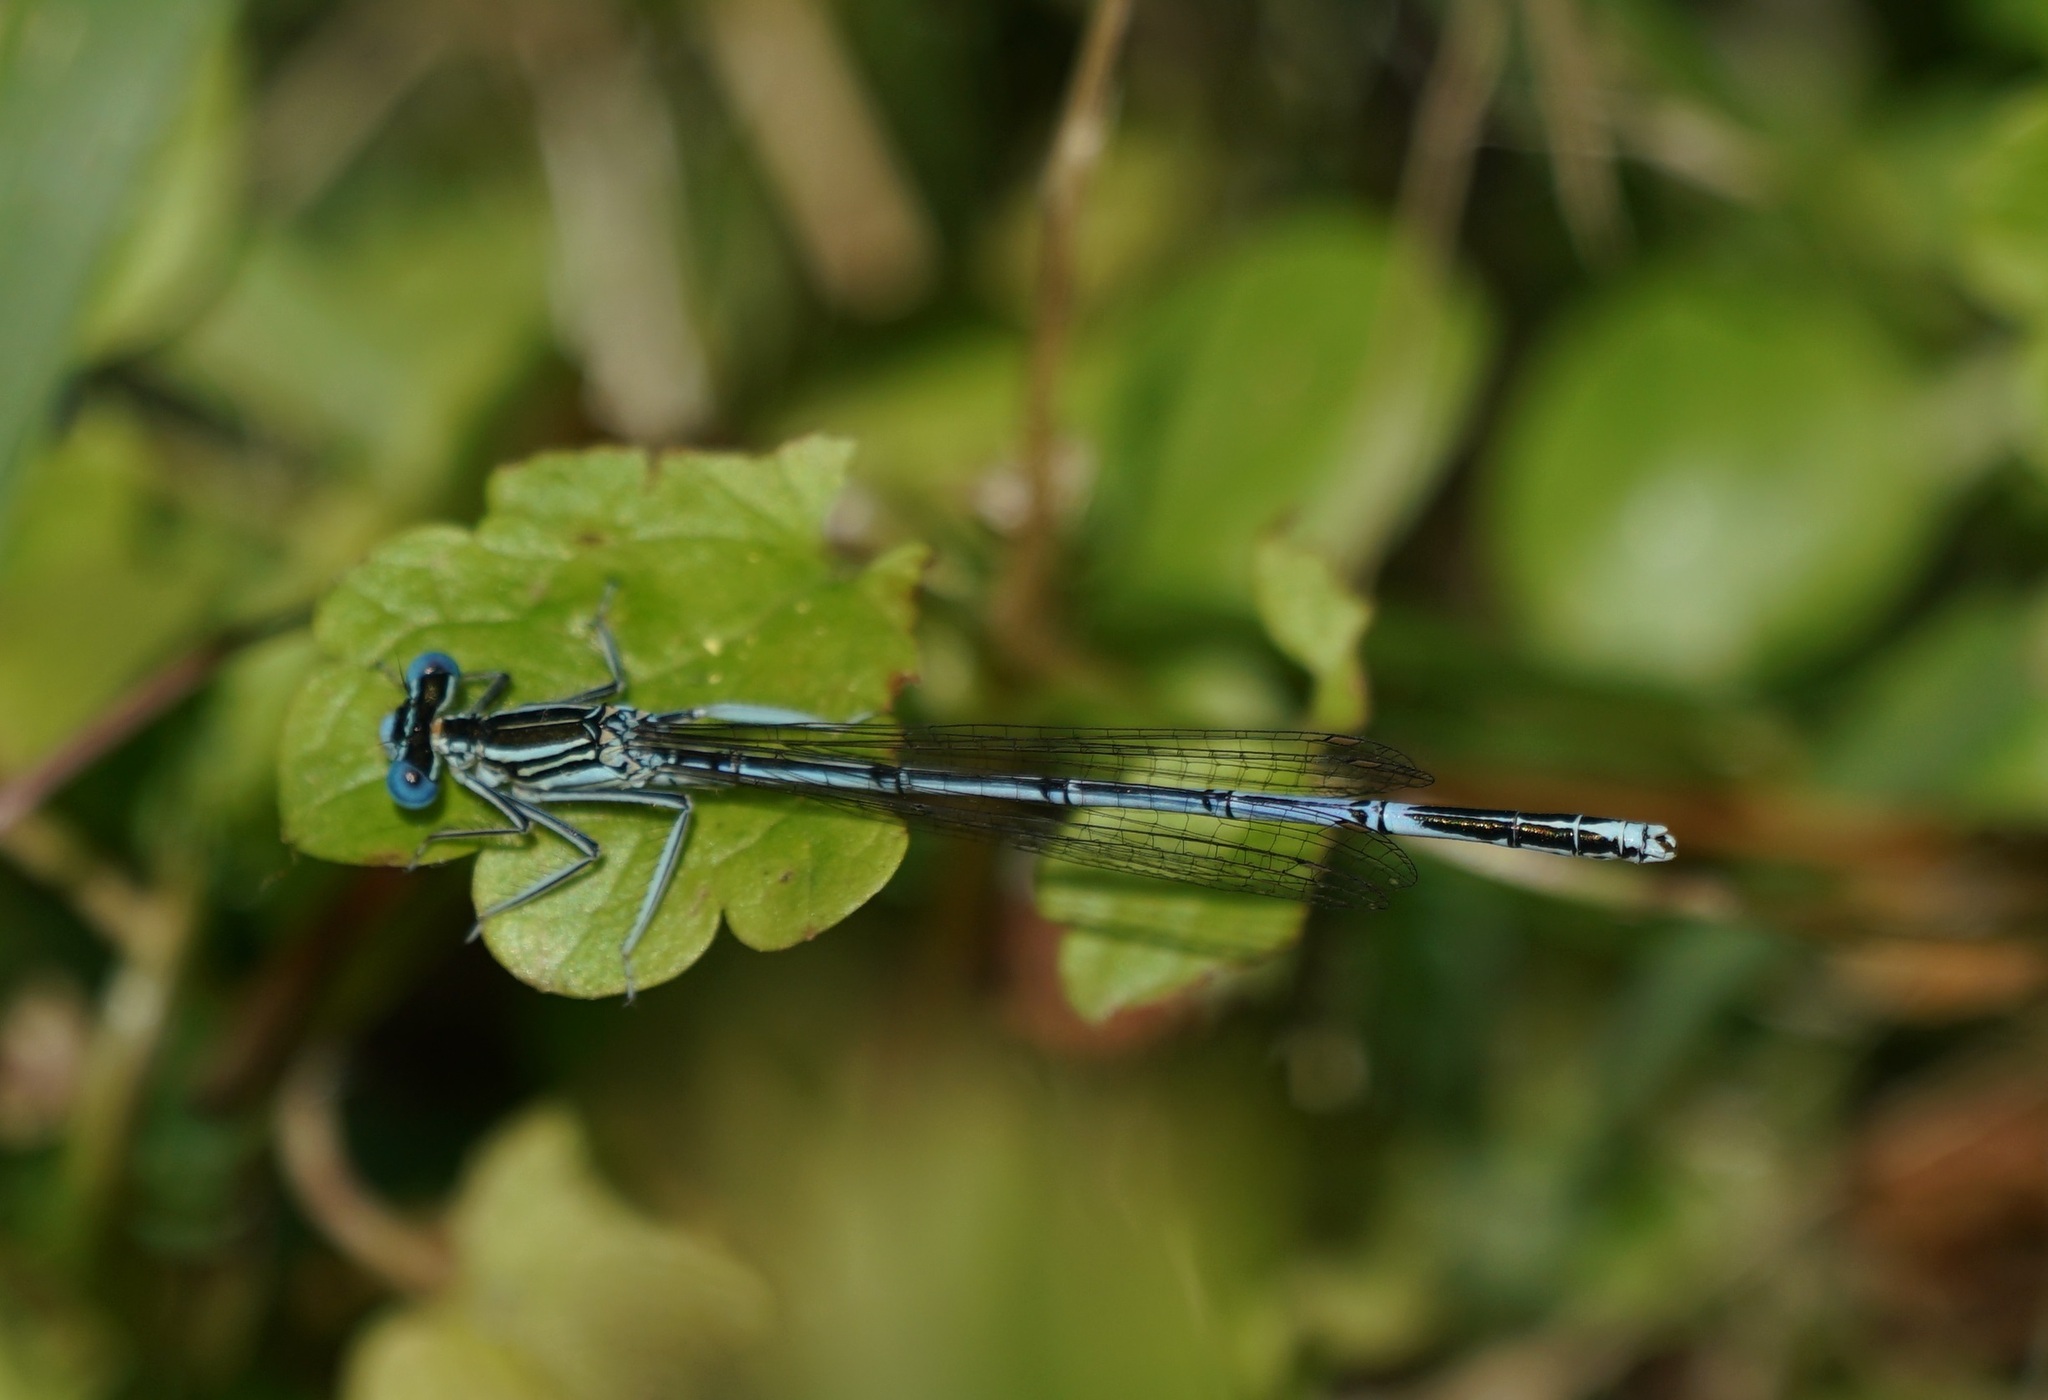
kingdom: Animalia
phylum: Arthropoda
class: Insecta
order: Odonata
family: Platycnemididae
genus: Platycnemis
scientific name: Platycnemis pennipes
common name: White-legged damselfly
